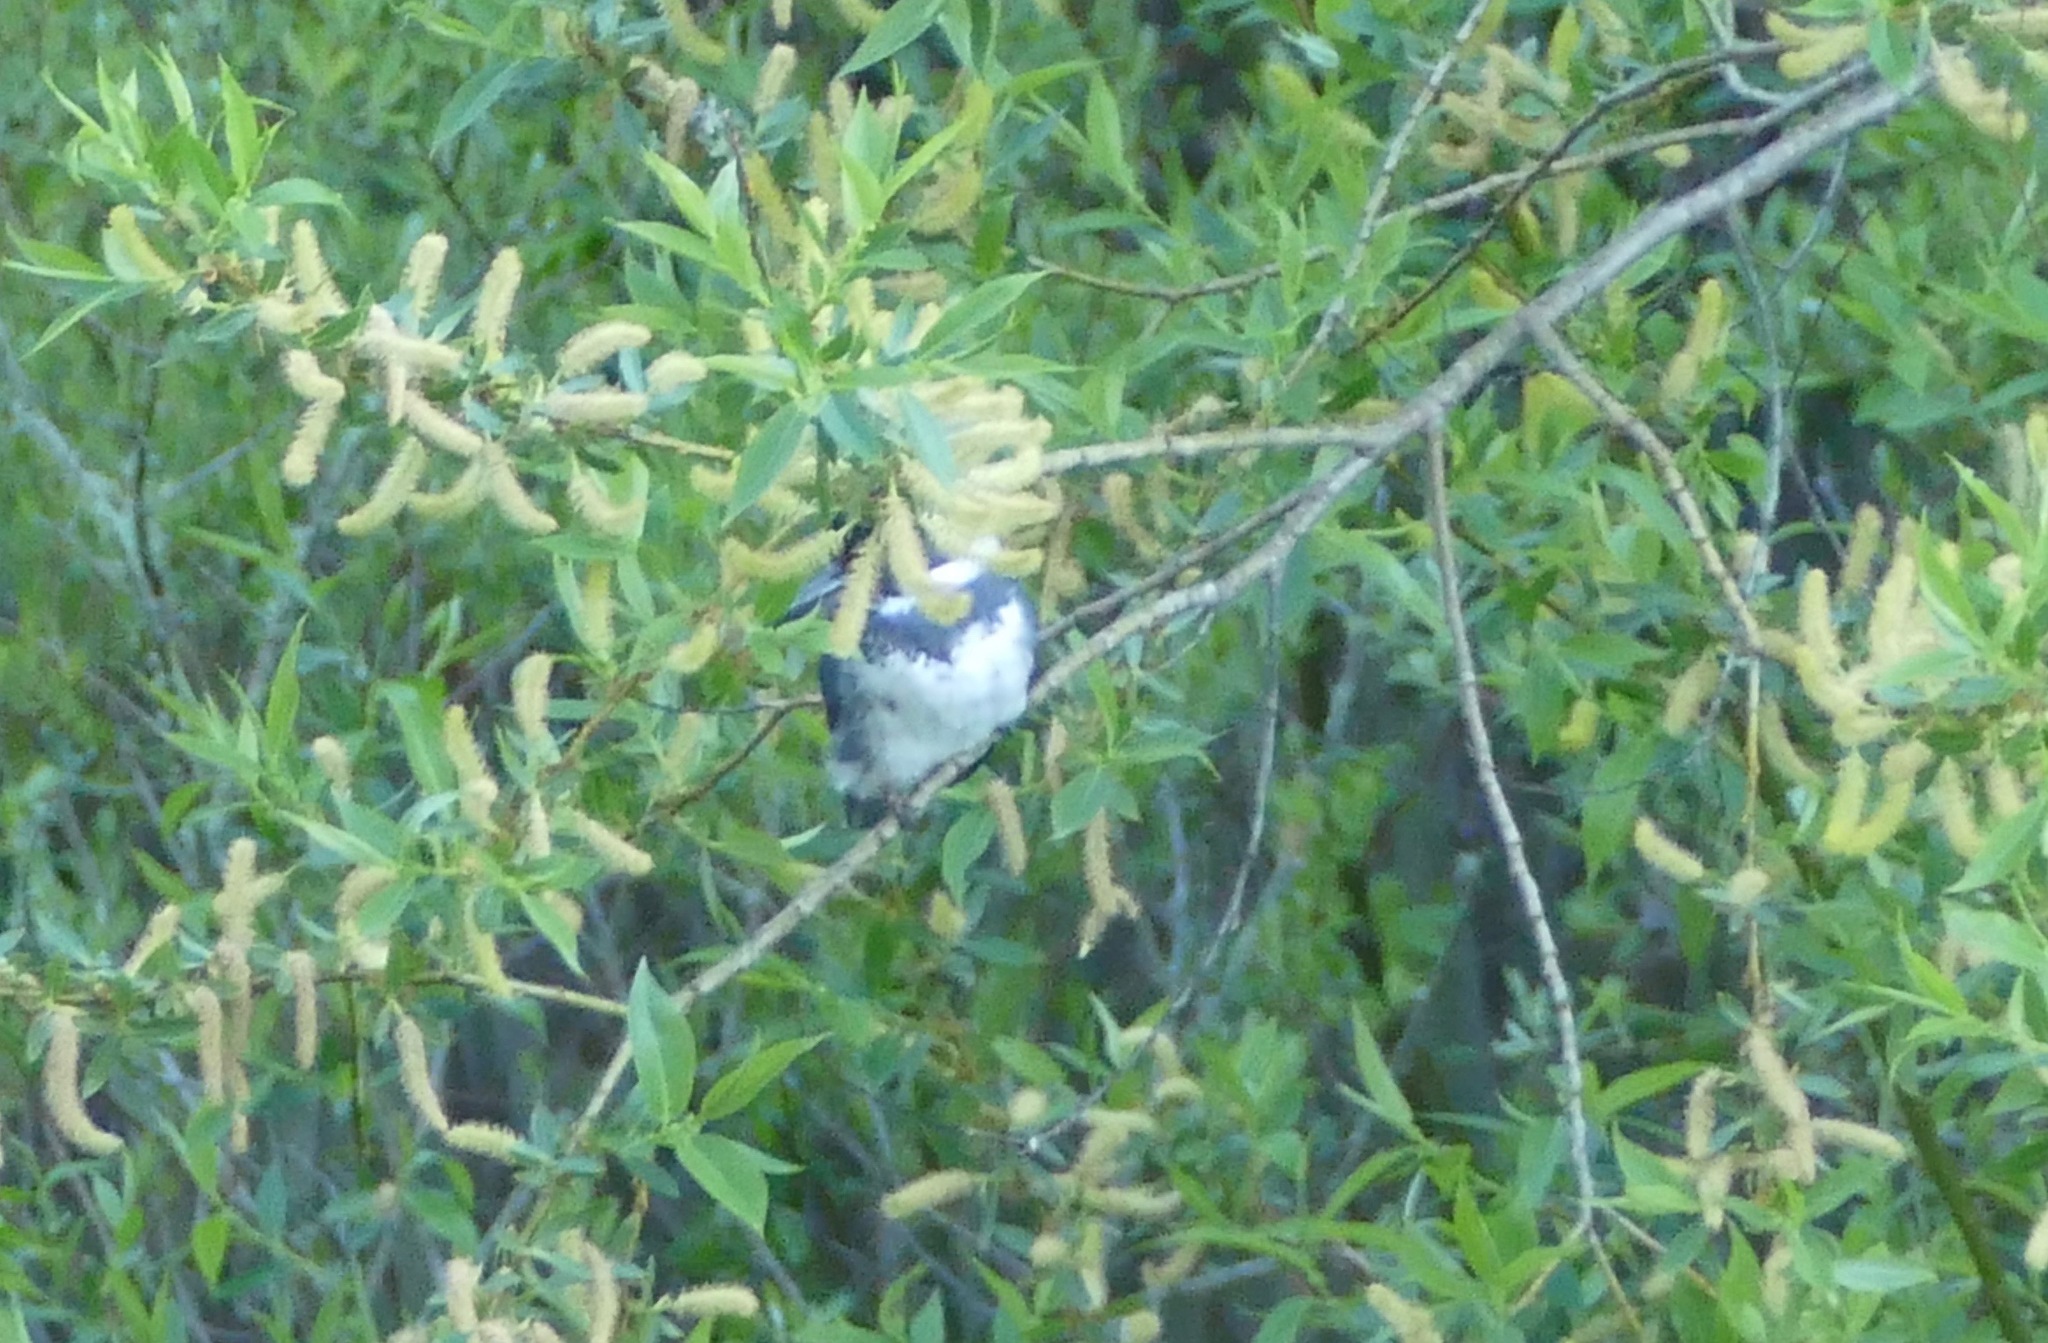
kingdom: Animalia
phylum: Chordata
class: Aves
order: Coraciiformes
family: Alcedinidae
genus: Megaceryle
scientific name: Megaceryle alcyon
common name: Belted kingfisher
